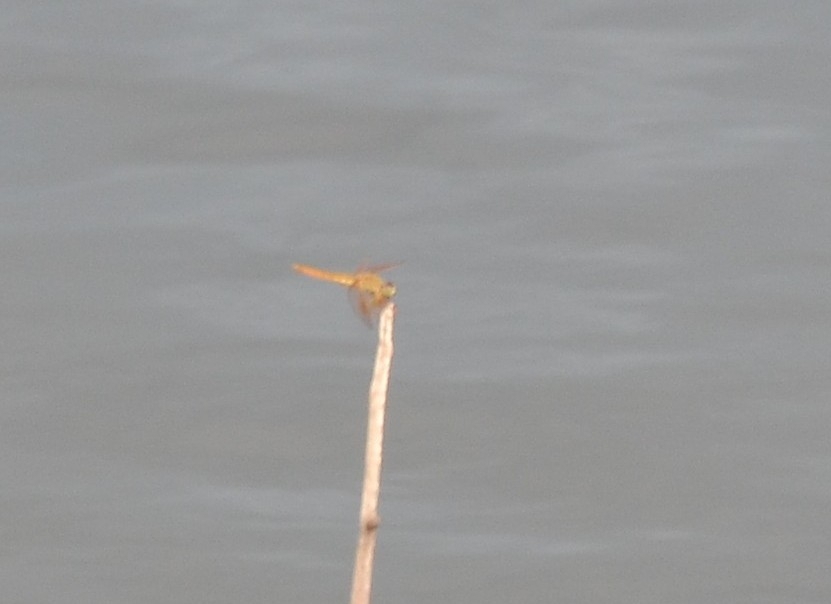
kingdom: Animalia
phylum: Arthropoda
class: Insecta
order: Odonata
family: Libellulidae
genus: Brachythemis
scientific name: Brachythemis contaminata
